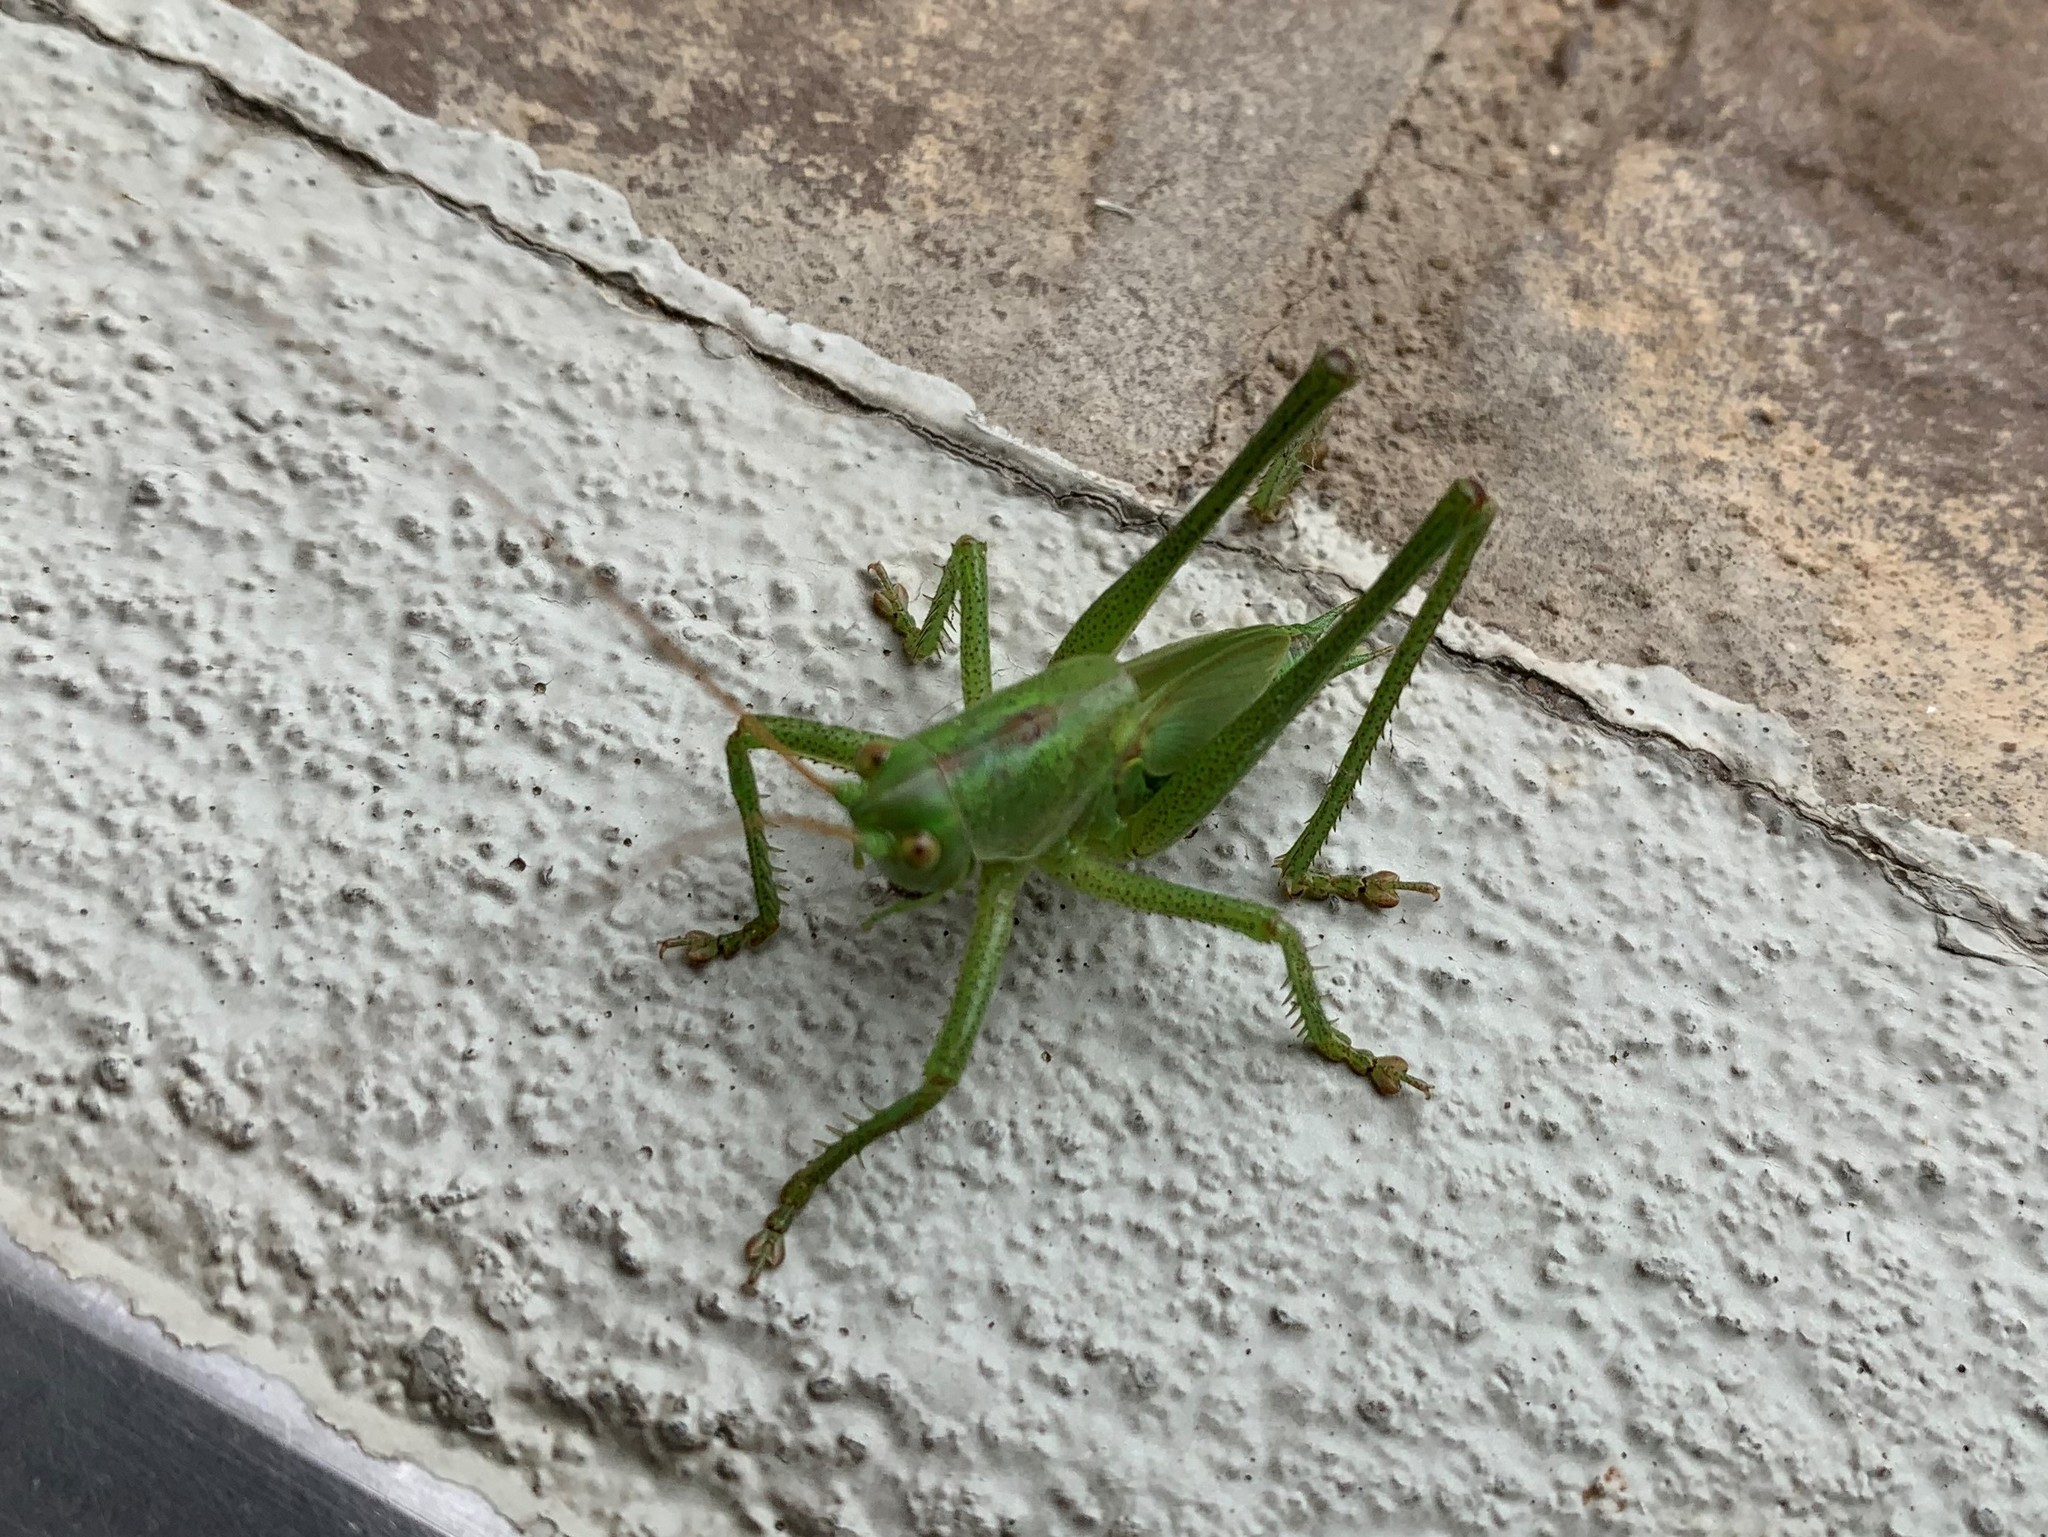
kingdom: Animalia
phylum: Arthropoda
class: Insecta
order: Orthoptera
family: Tettigoniidae
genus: Tettigonia
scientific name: Tettigonia viridissima
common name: Great green bush-cricket
